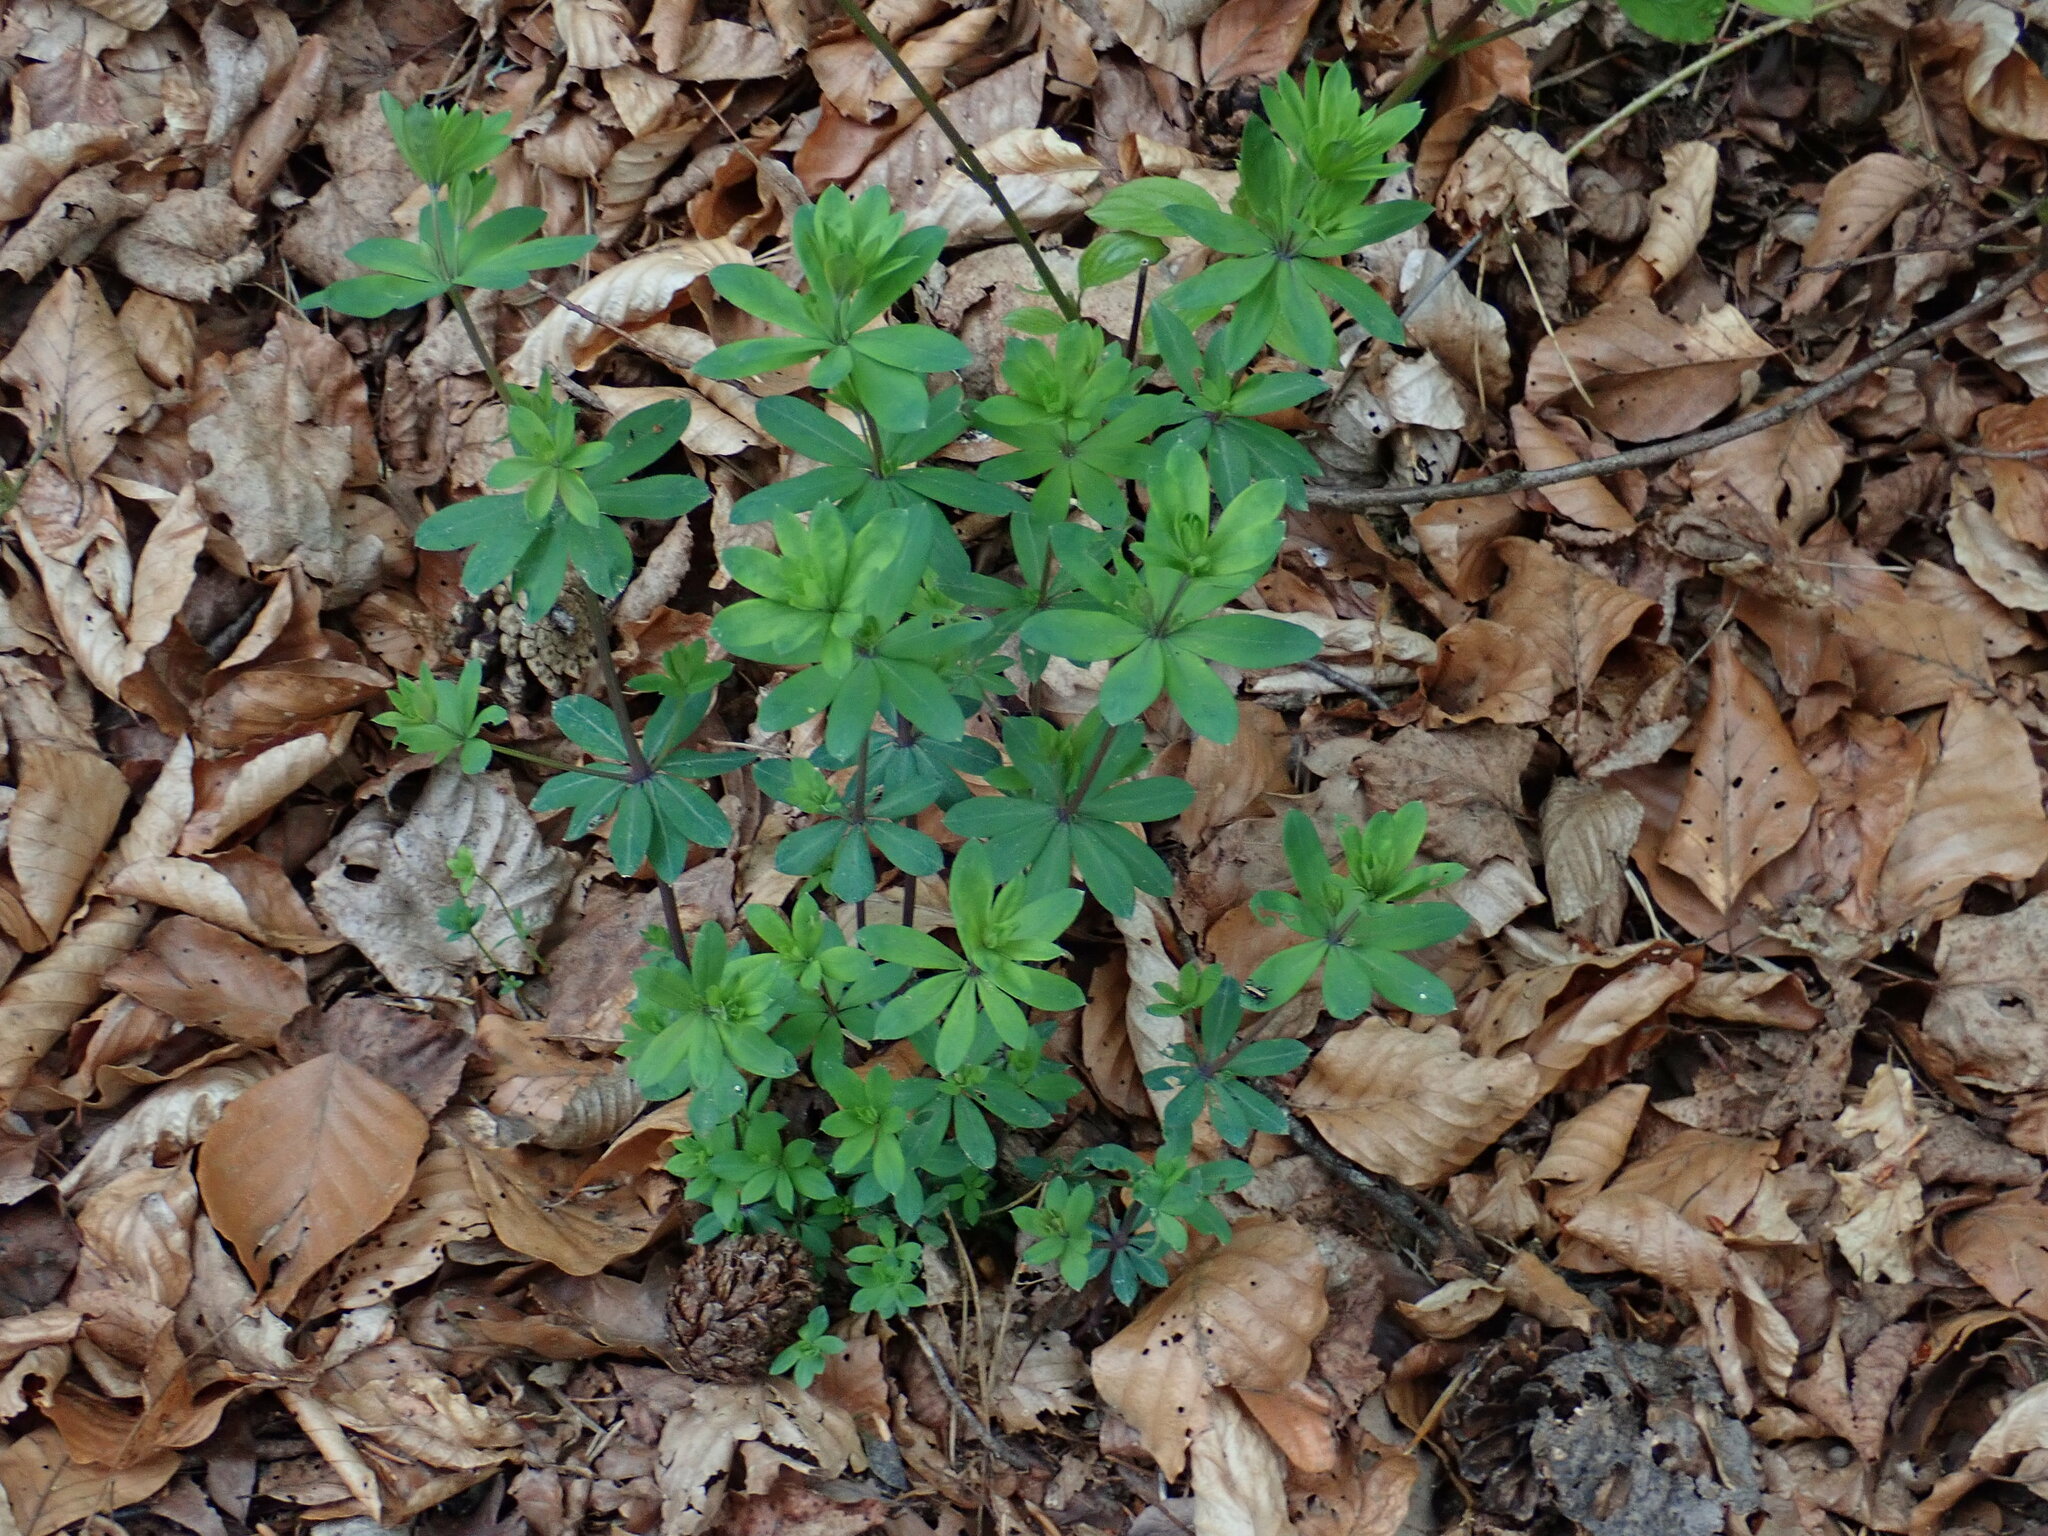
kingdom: Plantae
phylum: Tracheophyta
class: Magnoliopsida
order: Gentianales
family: Rubiaceae
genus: Galium
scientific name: Galium sylvaticum
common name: Wood bedstraw
